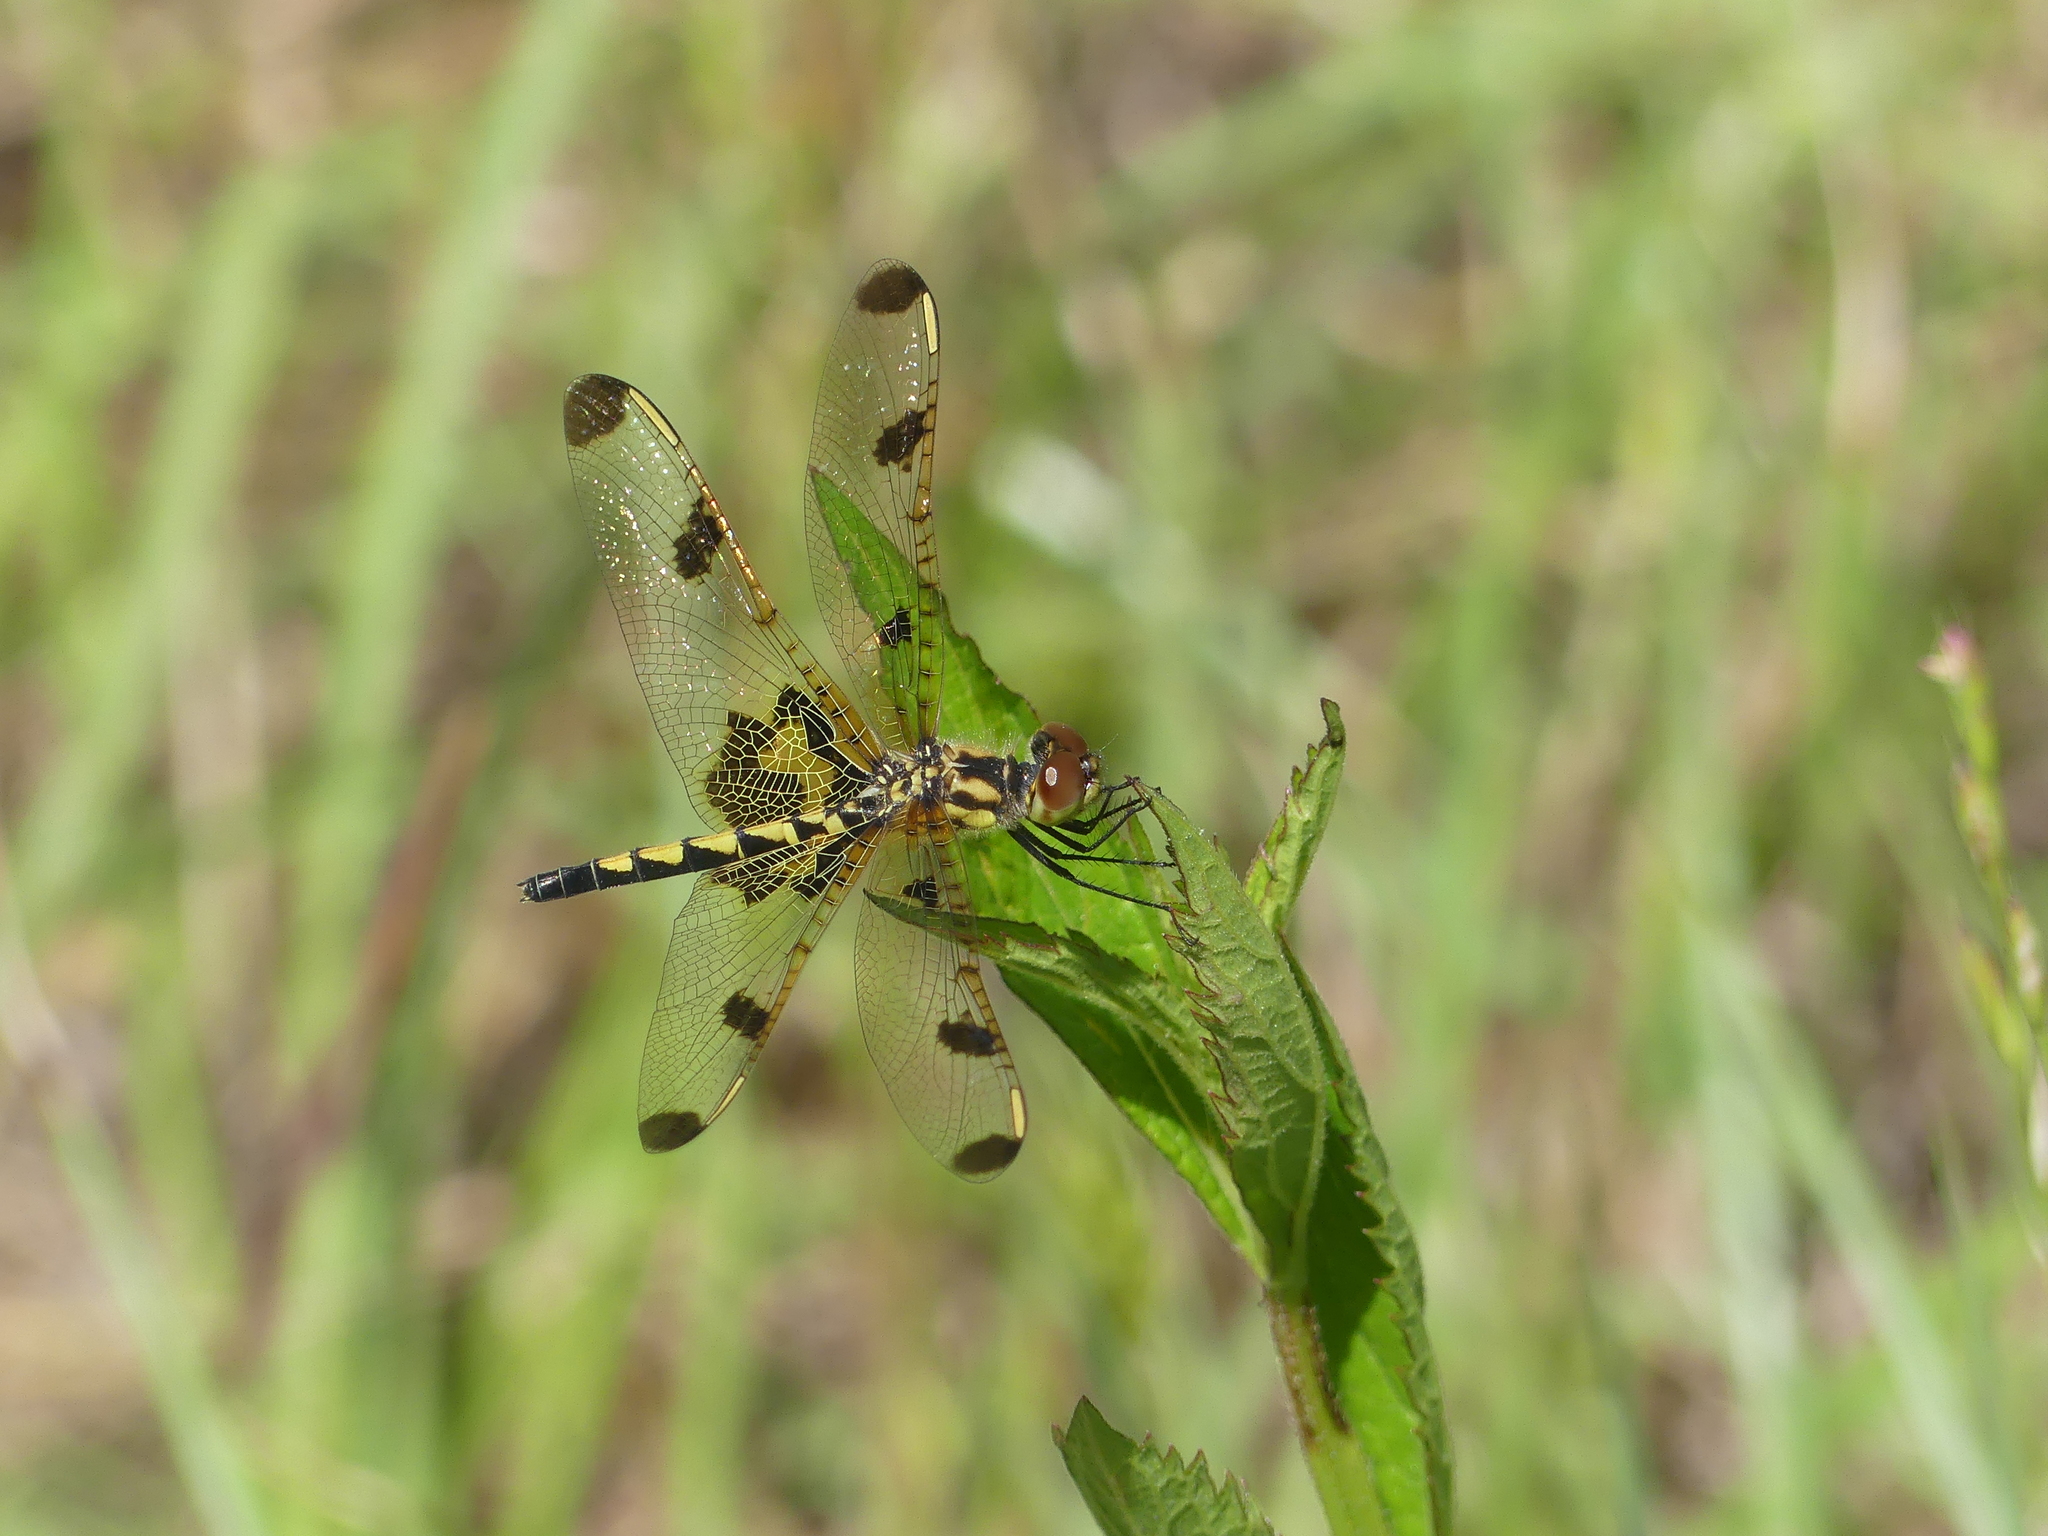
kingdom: Animalia
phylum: Arthropoda
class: Insecta
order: Odonata
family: Libellulidae
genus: Celithemis
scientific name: Celithemis elisa
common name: Calico pennant
